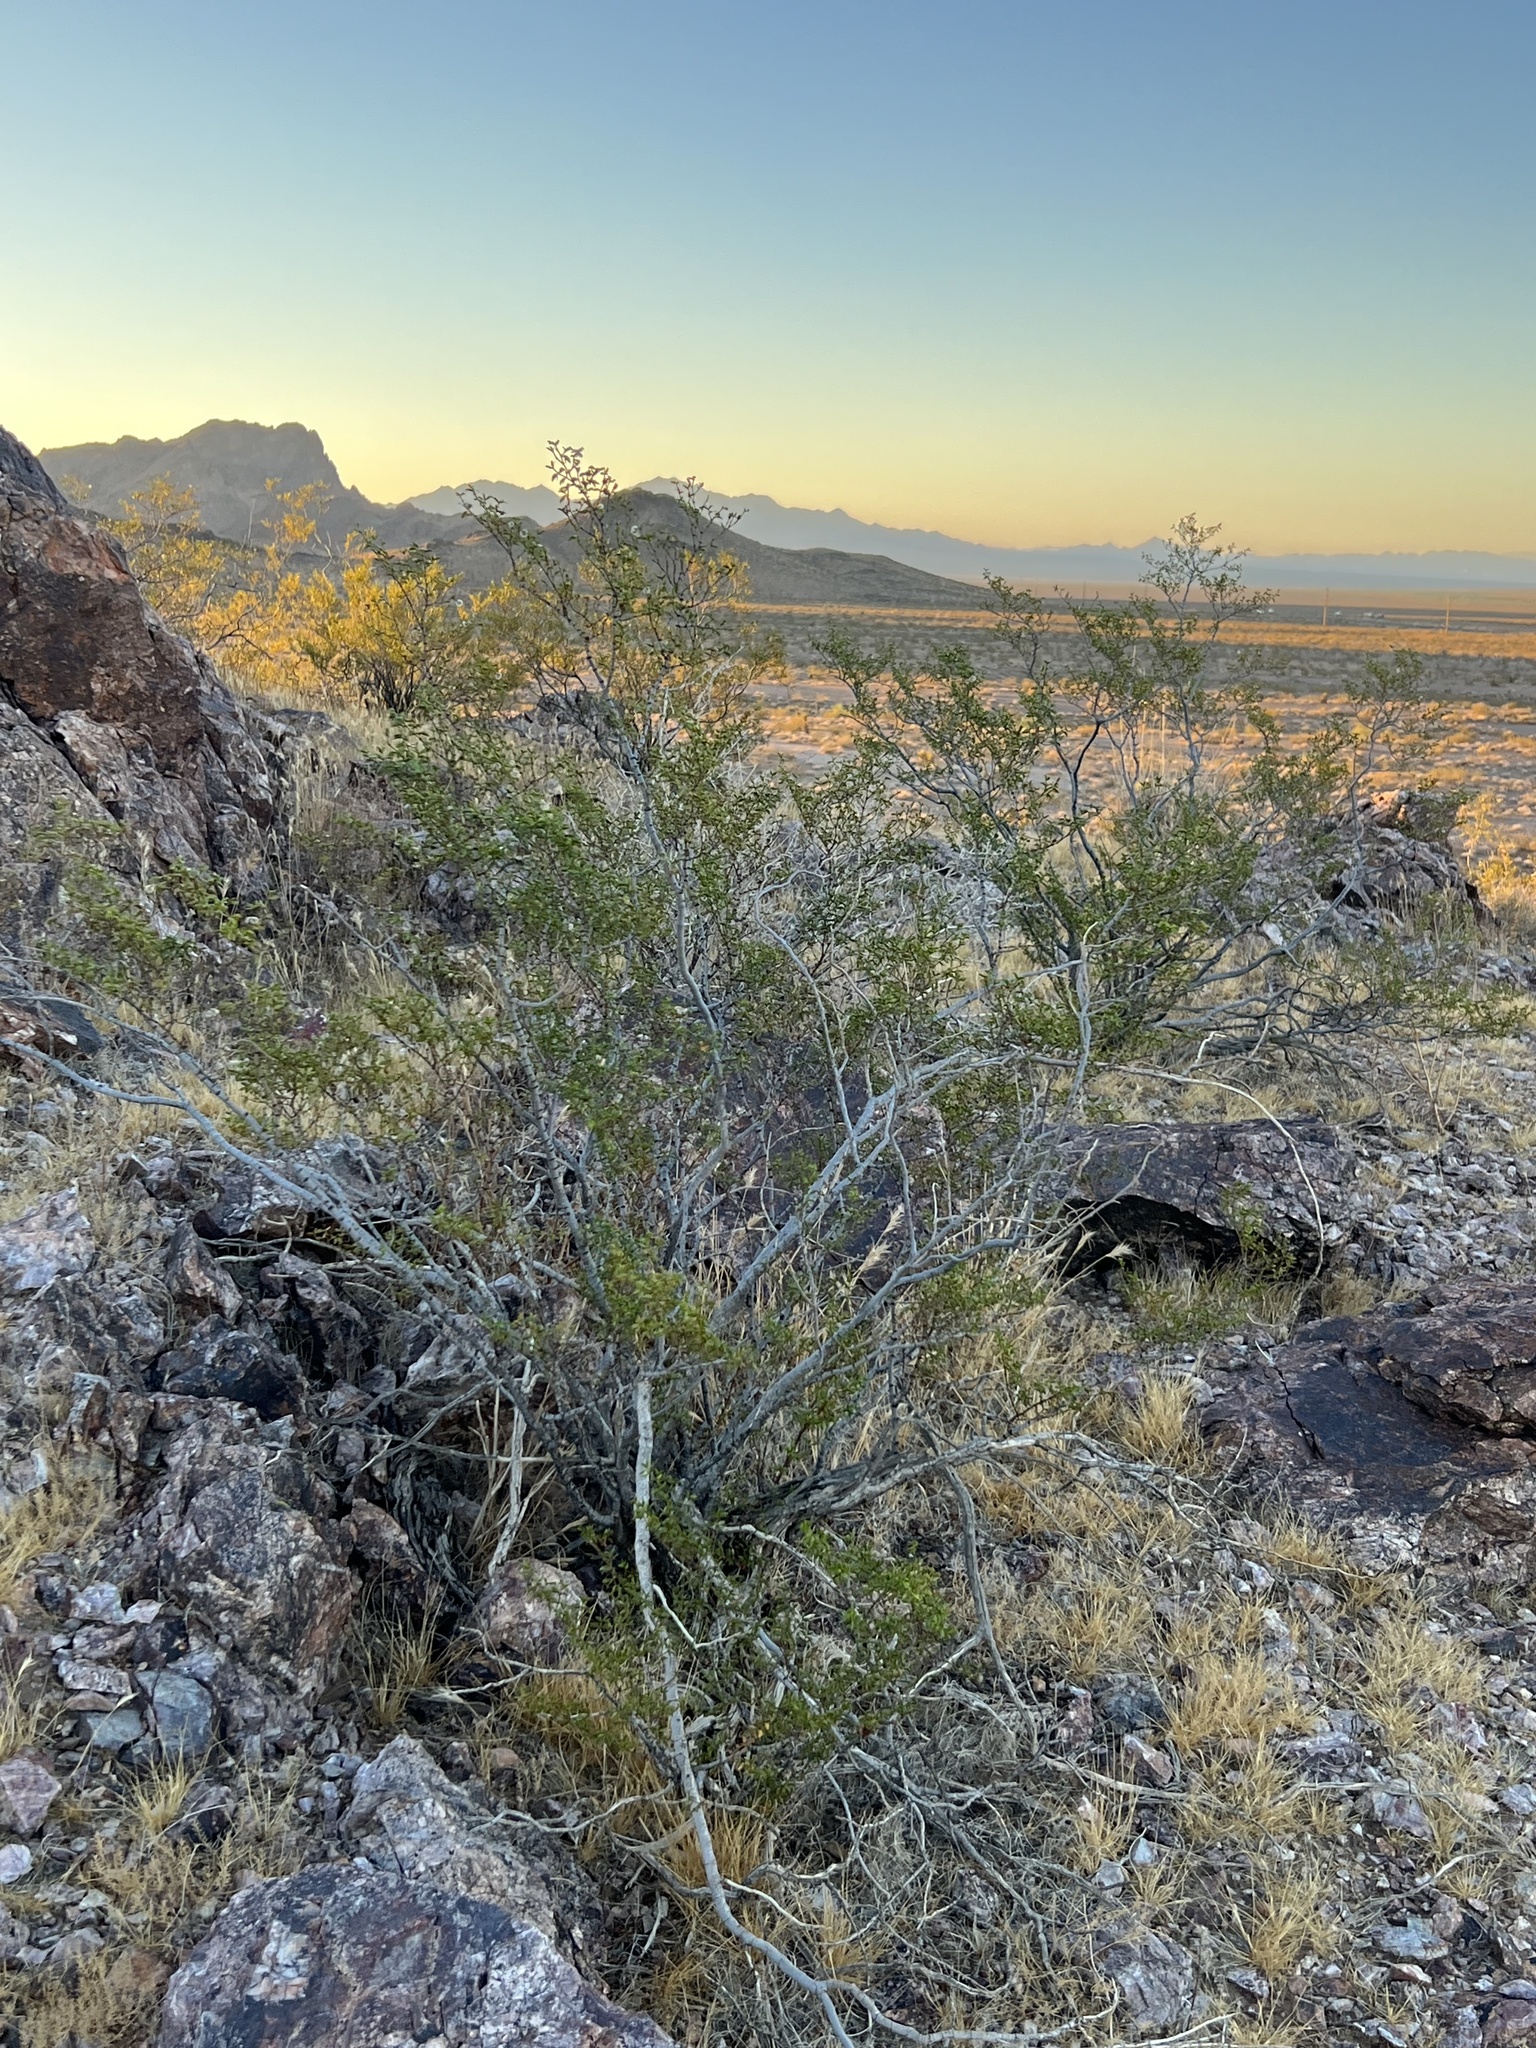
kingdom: Plantae
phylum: Tracheophyta
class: Magnoliopsida
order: Zygophyllales
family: Zygophyllaceae
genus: Larrea
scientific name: Larrea tridentata
